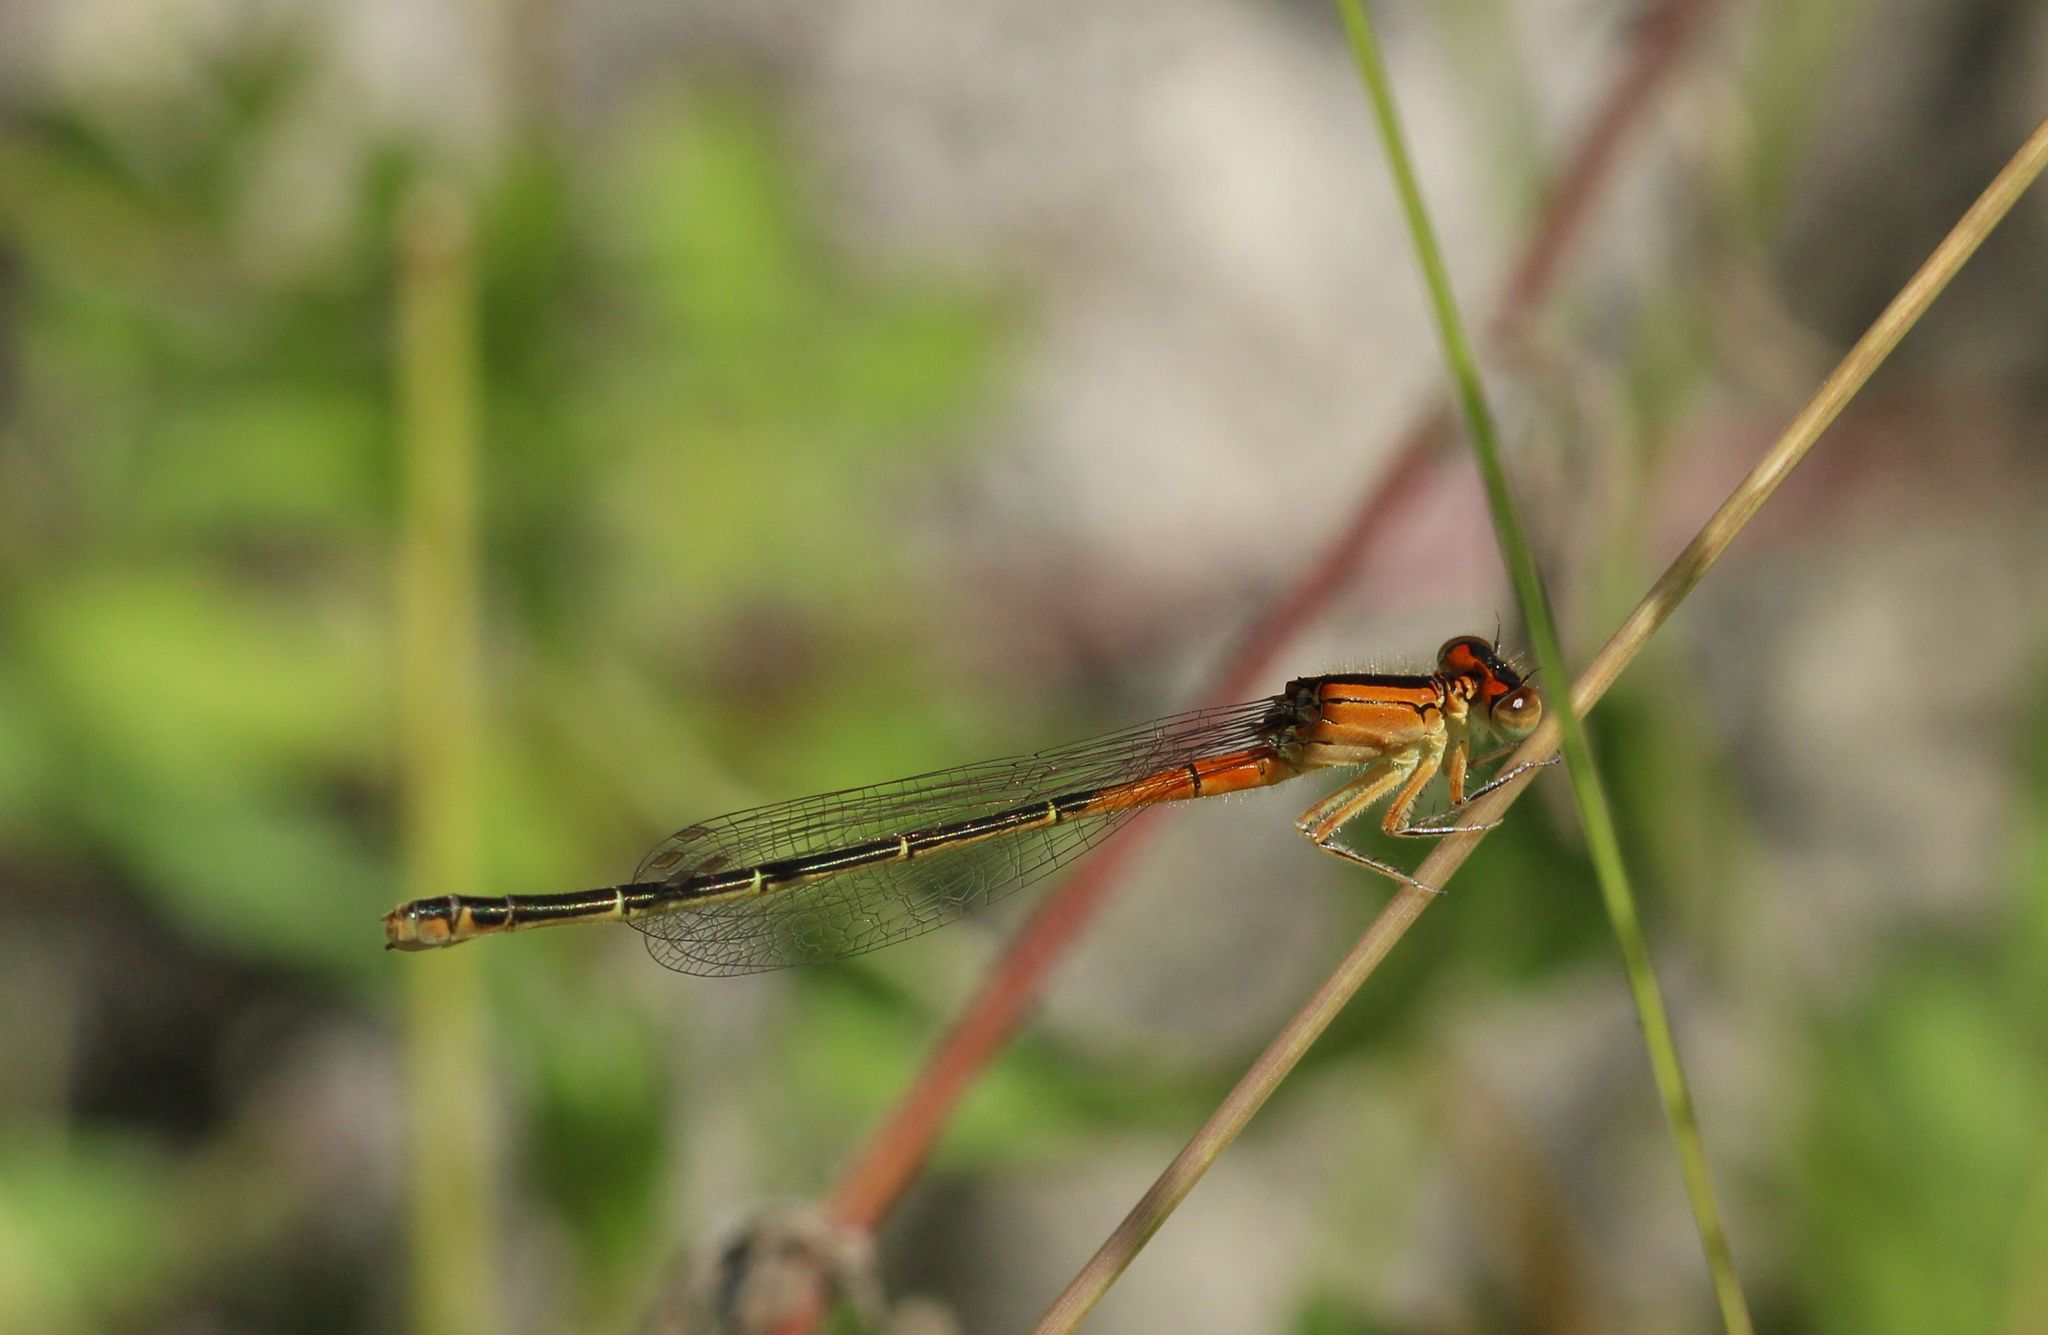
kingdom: Animalia
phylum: Arthropoda
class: Insecta
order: Odonata
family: Coenagrionidae
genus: Ischnura
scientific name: Ischnura verticalis
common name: Eastern forktail
